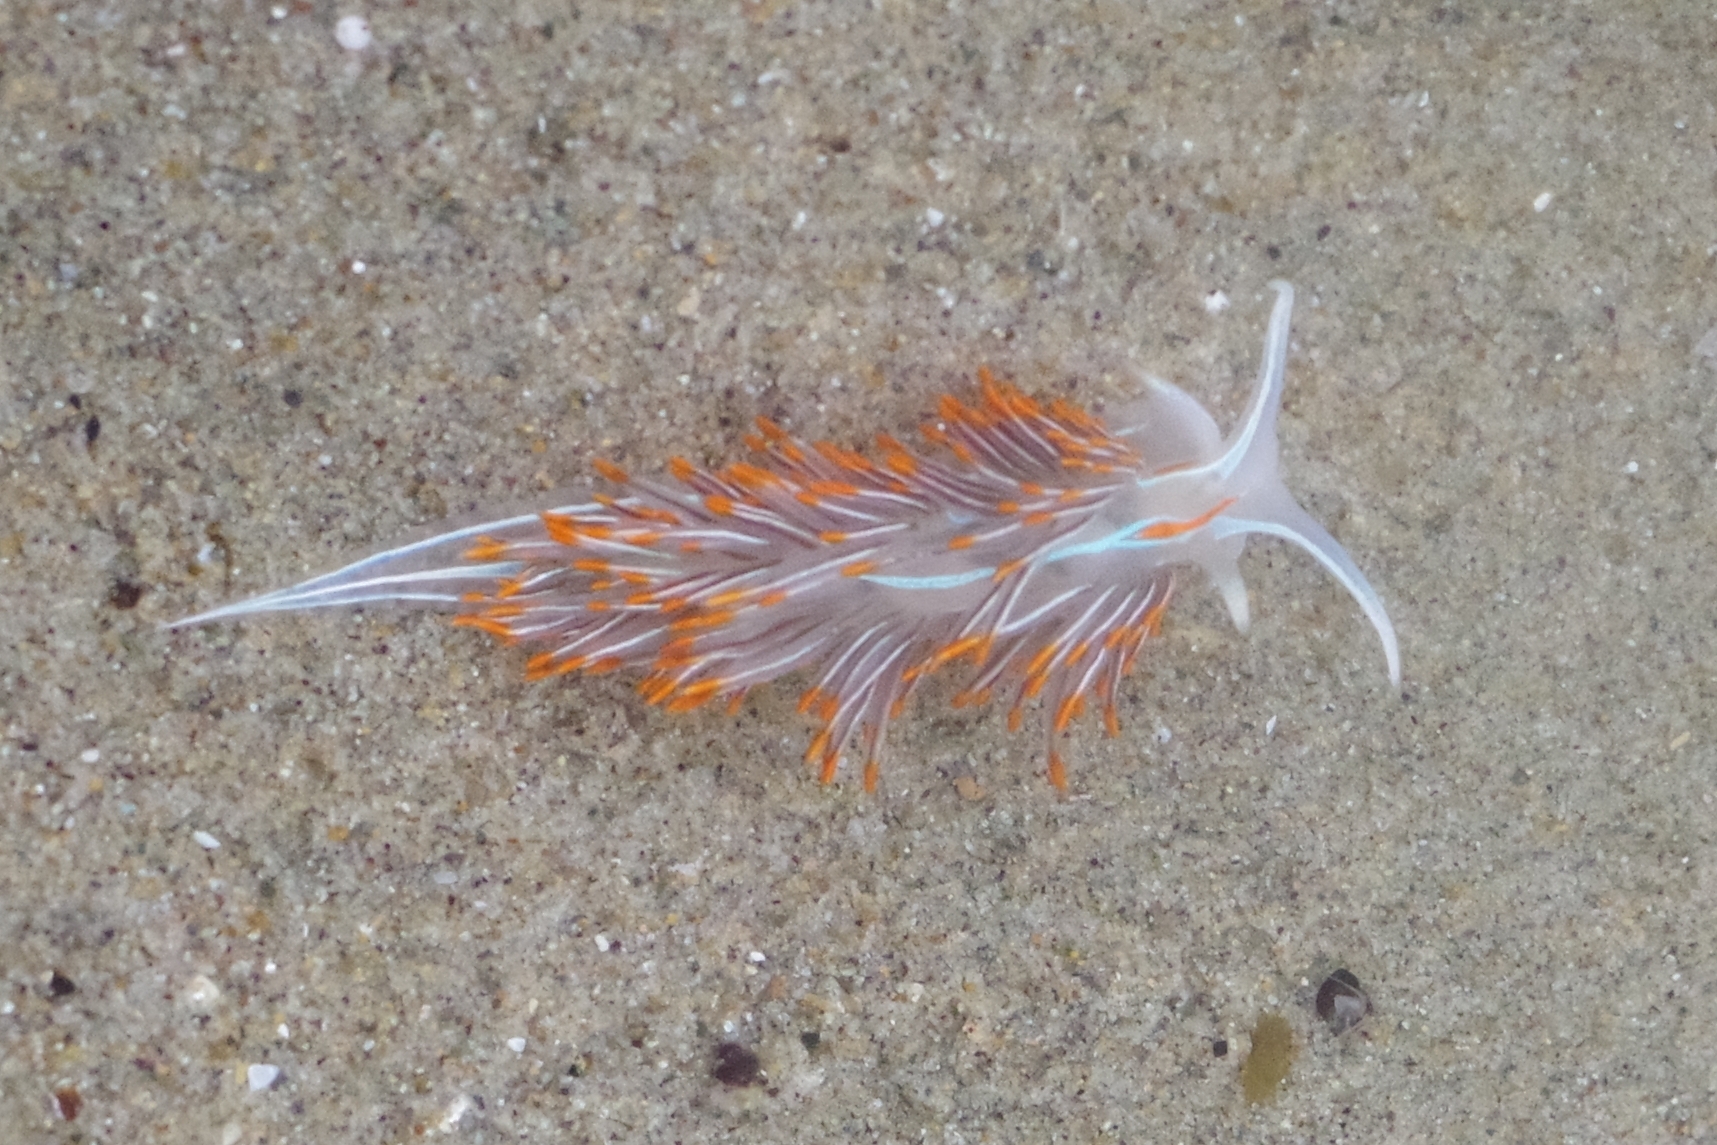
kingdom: Animalia
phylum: Mollusca
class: Gastropoda
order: Nudibranchia
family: Myrrhinidae
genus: Hermissenda
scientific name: Hermissenda crassicornis
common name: Hermissenda
